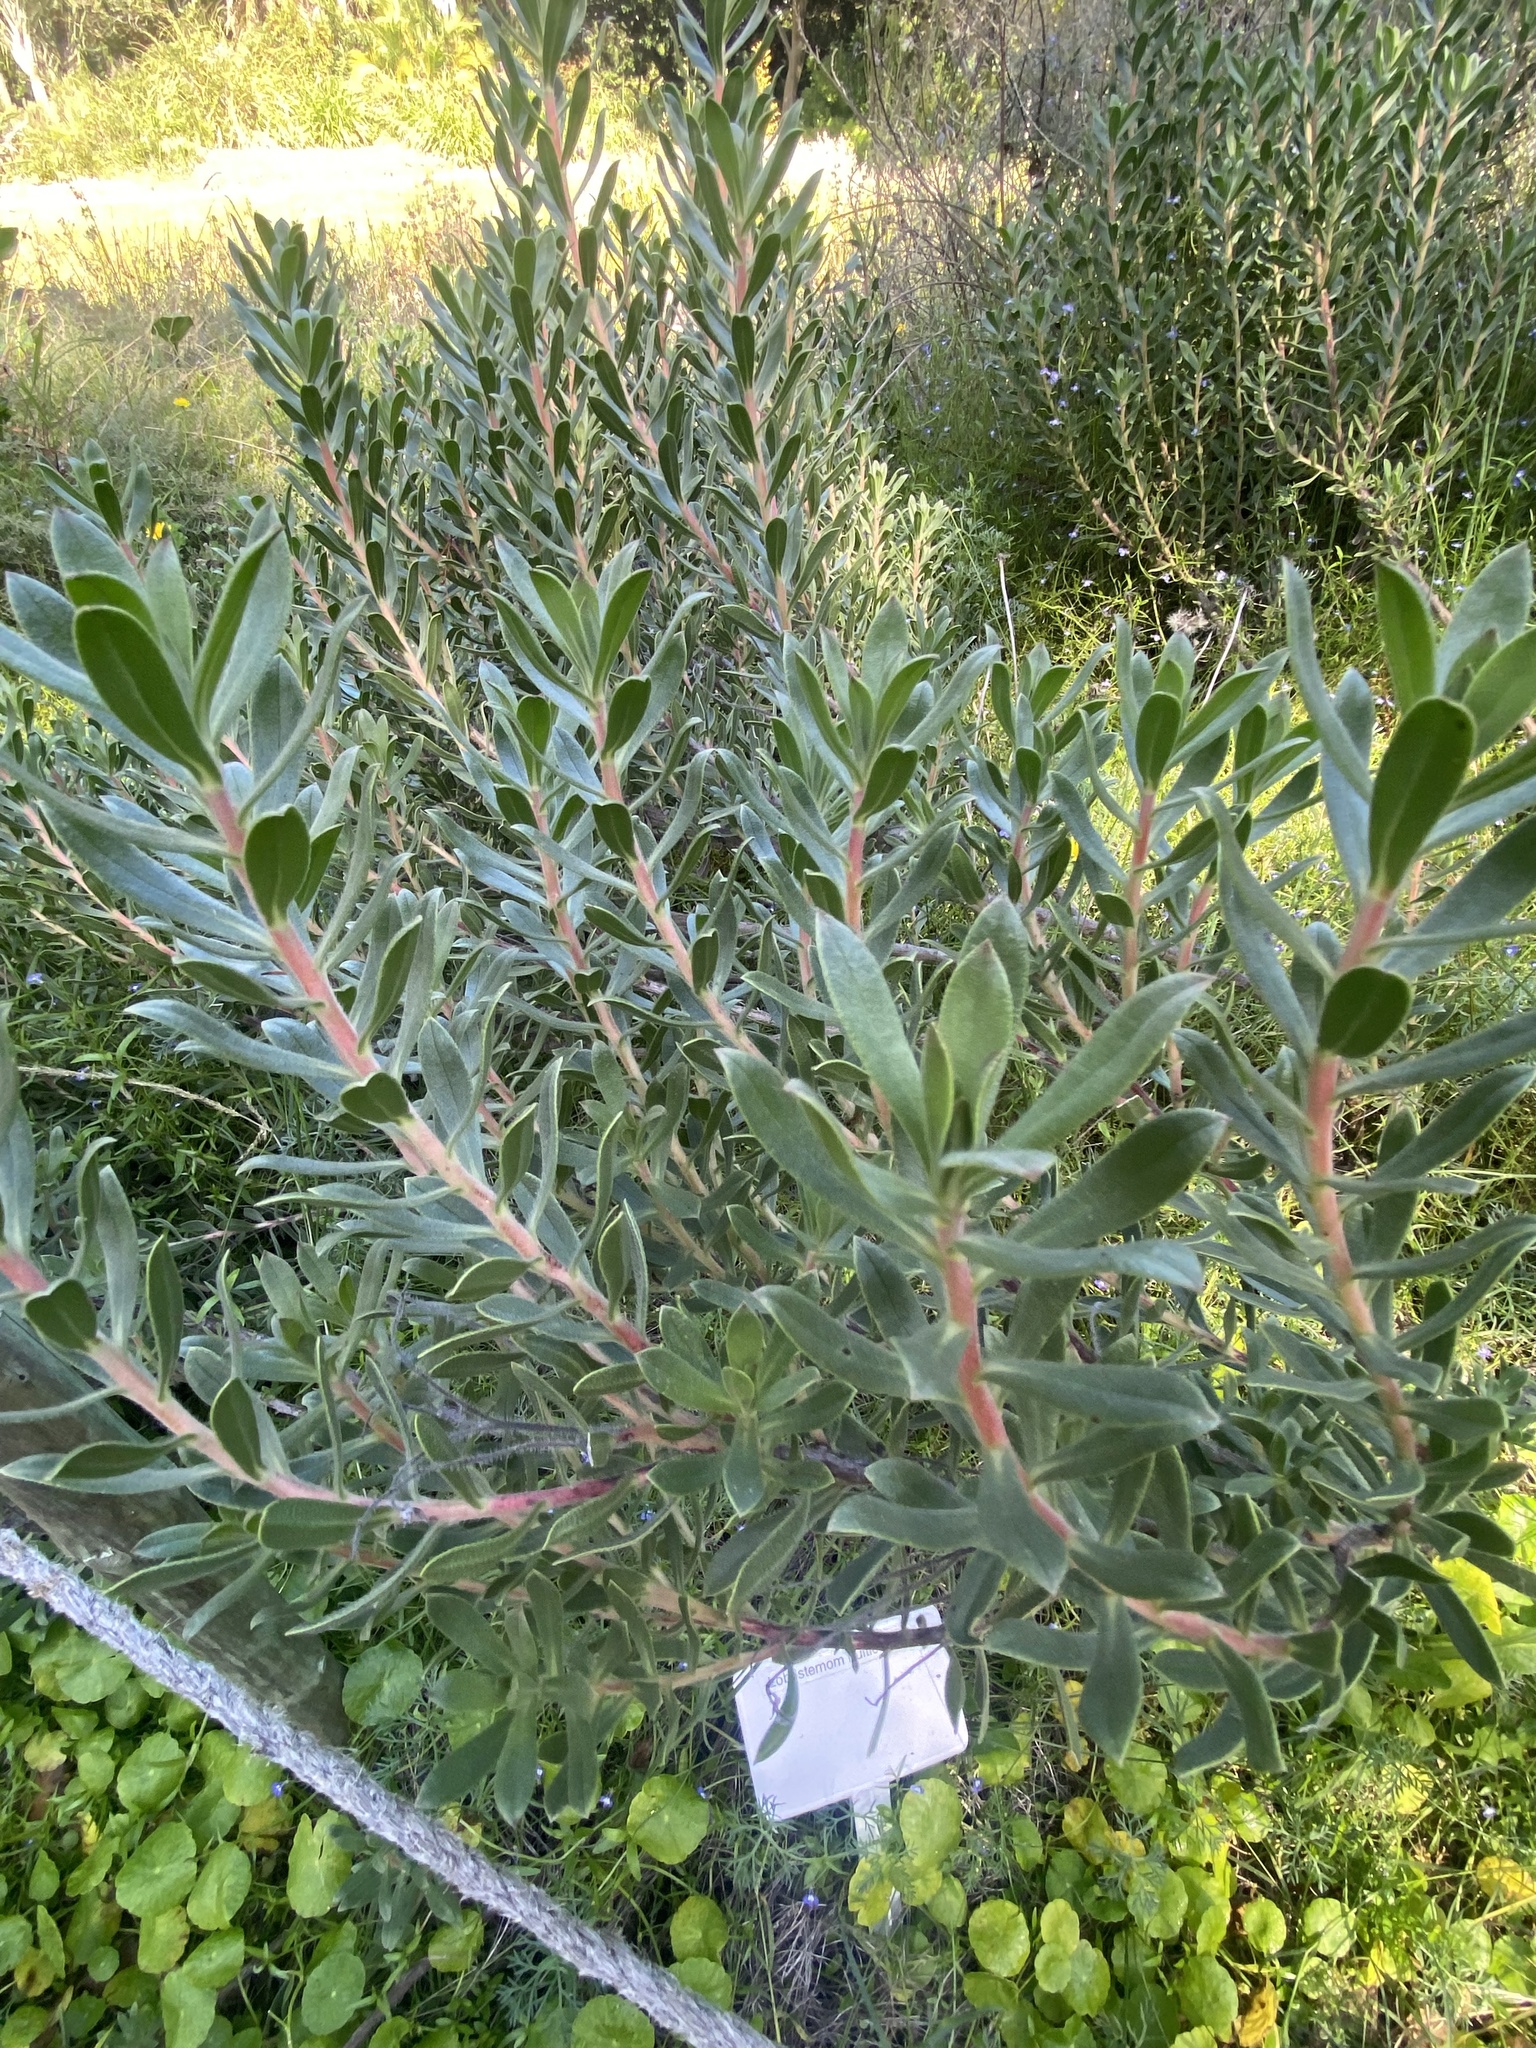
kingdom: Plantae
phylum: Tracheophyta
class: Magnoliopsida
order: Boraginales
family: Boraginaceae
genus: Lobostemon
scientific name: Lobostemon fruticosus
